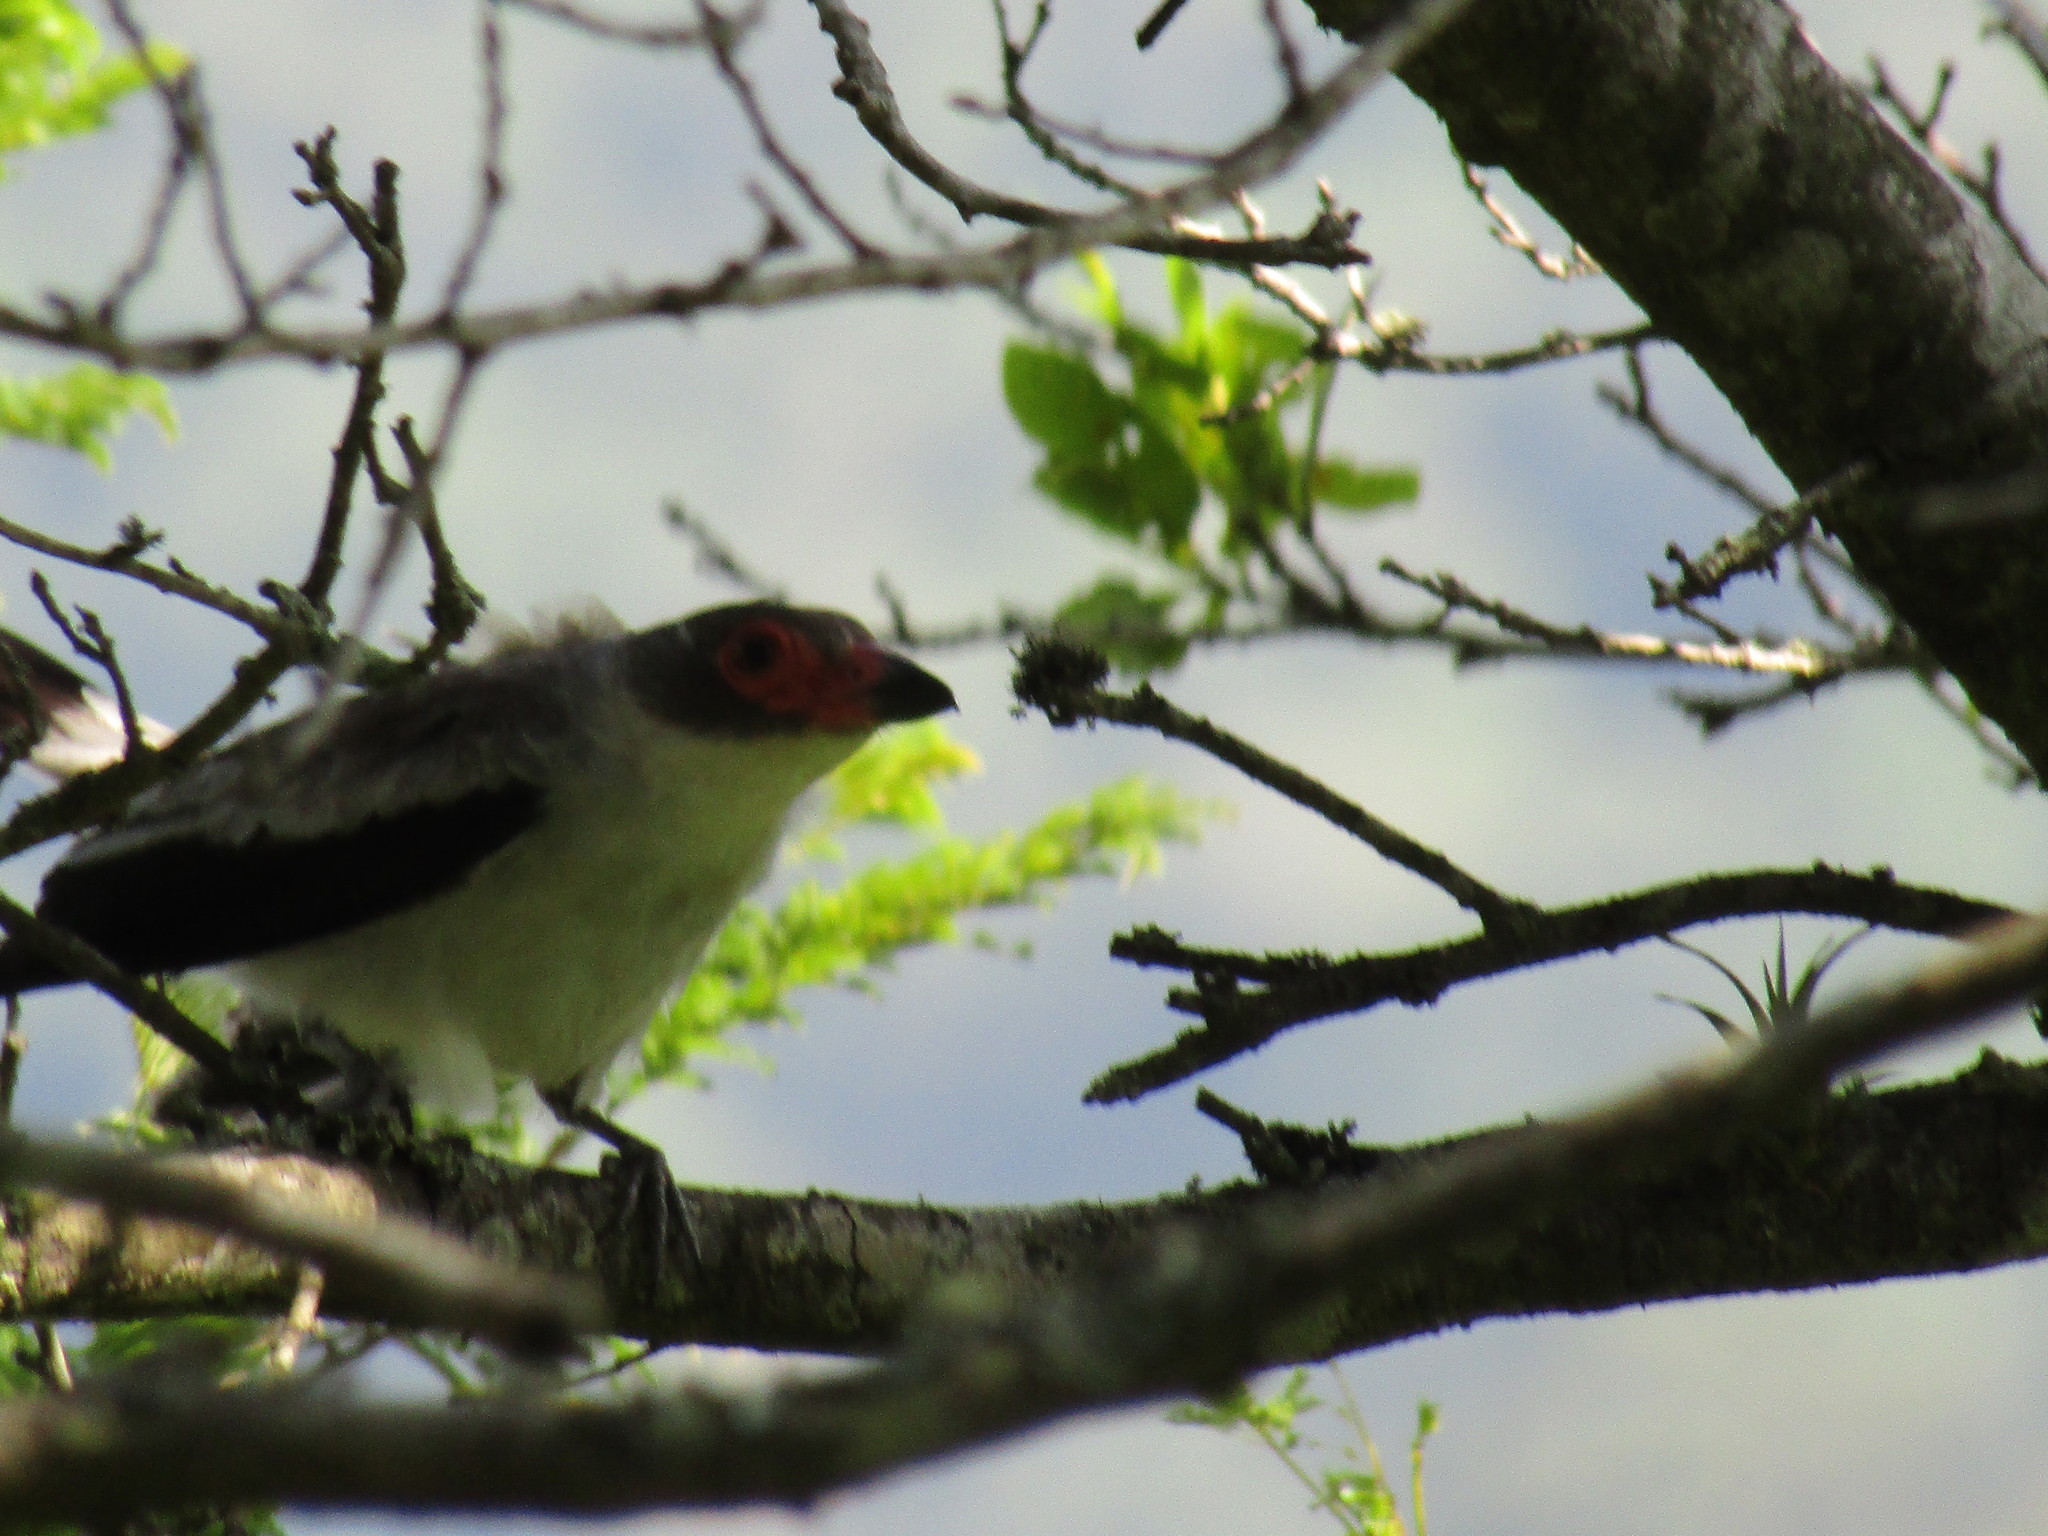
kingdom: Animalia
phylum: Chordata
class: Aves
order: Passeriformes
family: Cotingidae
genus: Tityra
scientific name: Tityra semifasciata
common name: Masked tityra
